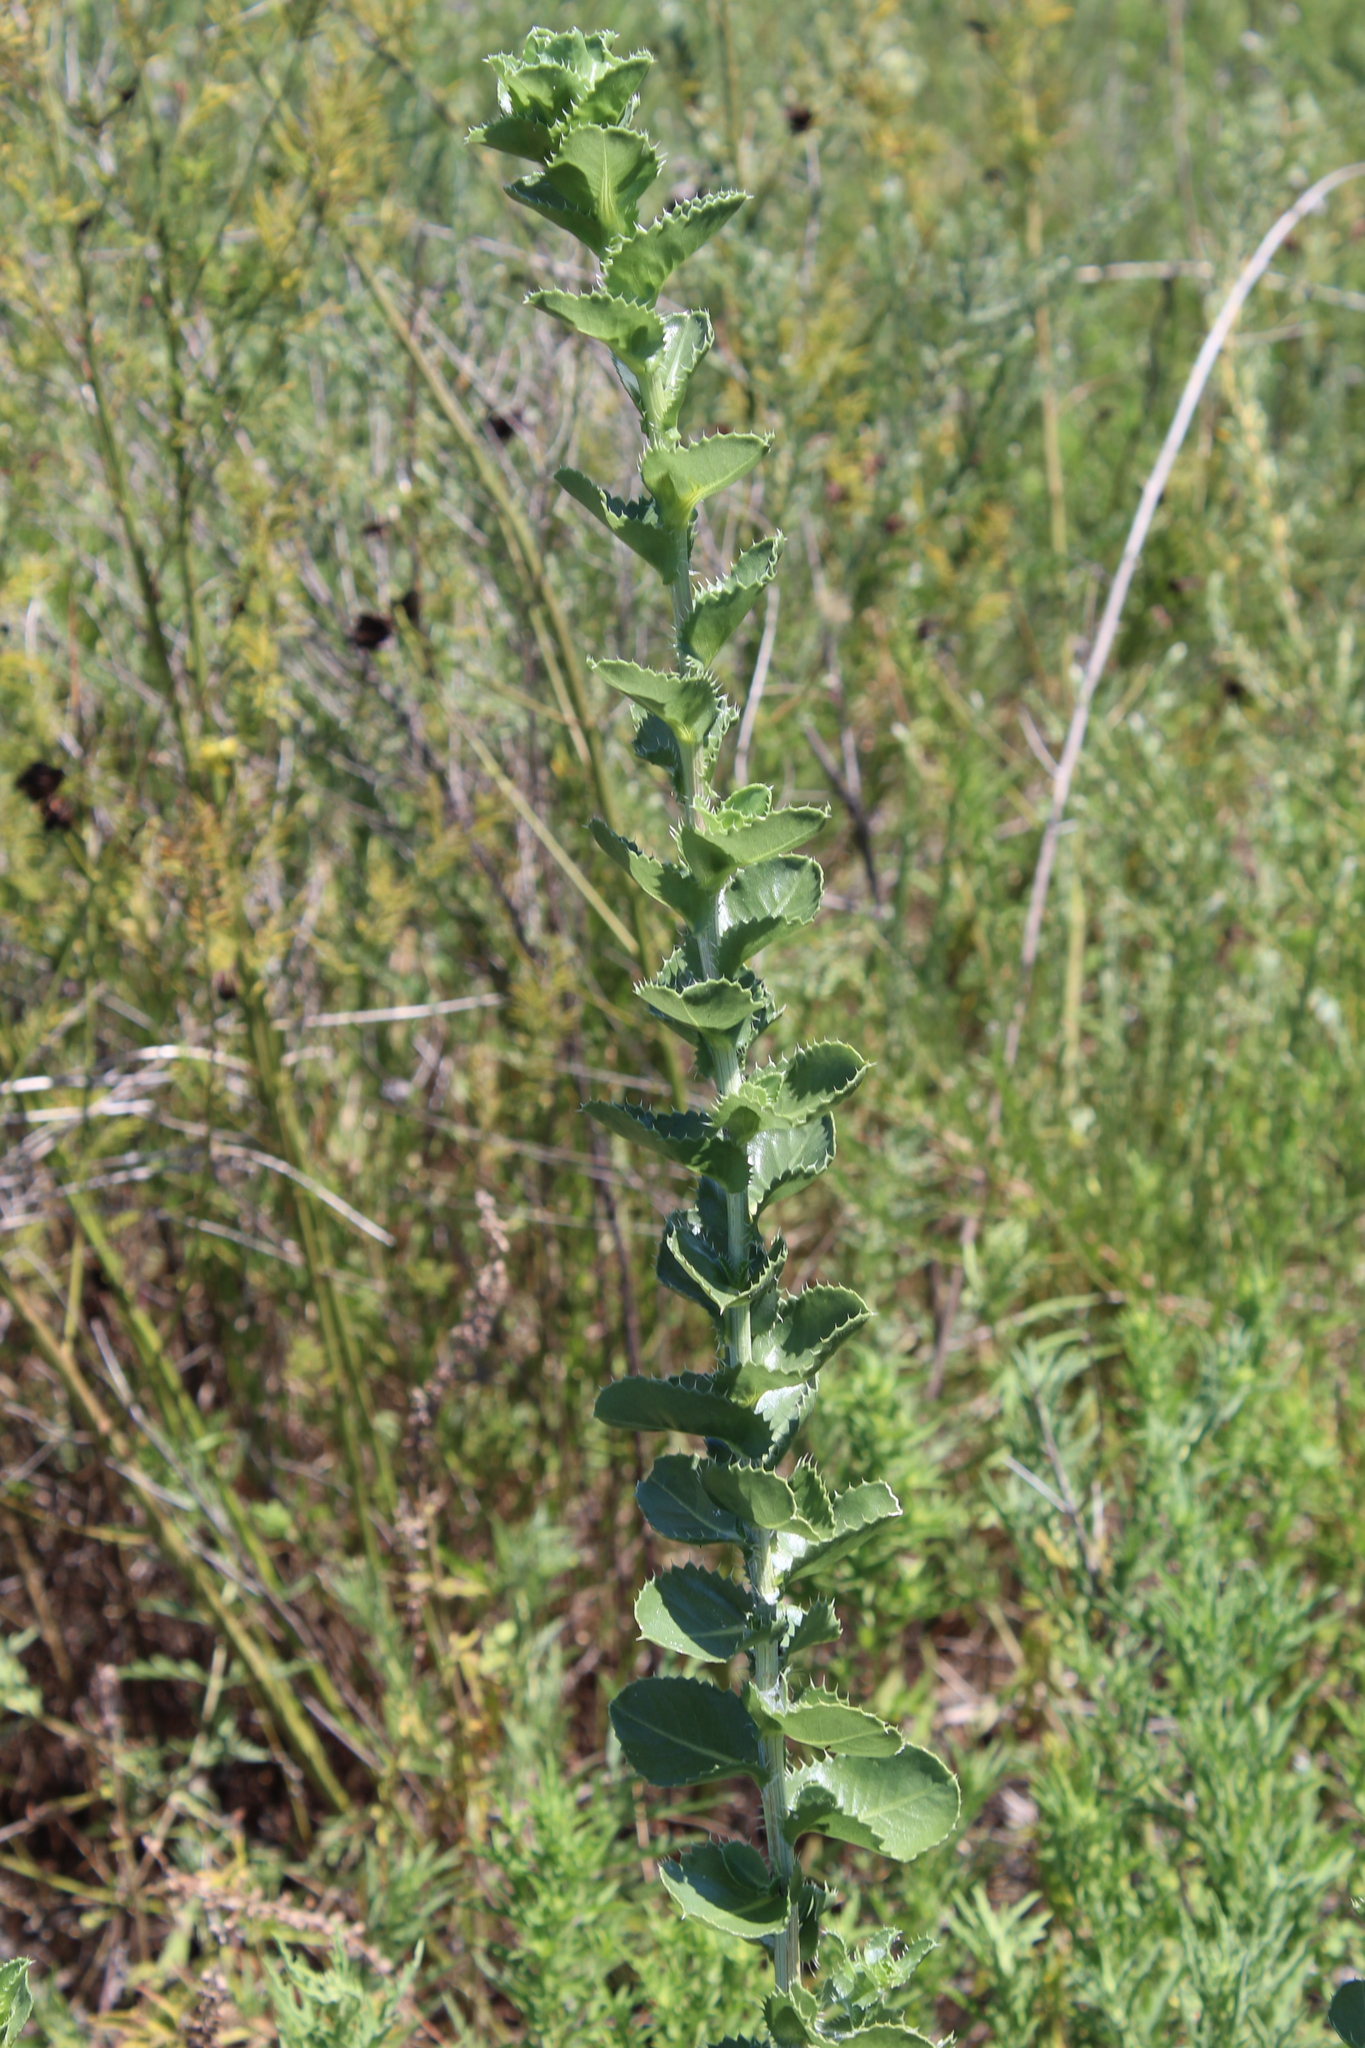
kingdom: Plantae
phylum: Tracheophyta
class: Magnoliopsida
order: Asterales
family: Asteraceae
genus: Grindelia
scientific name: Grindelia ciliata
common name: Goldenweed
